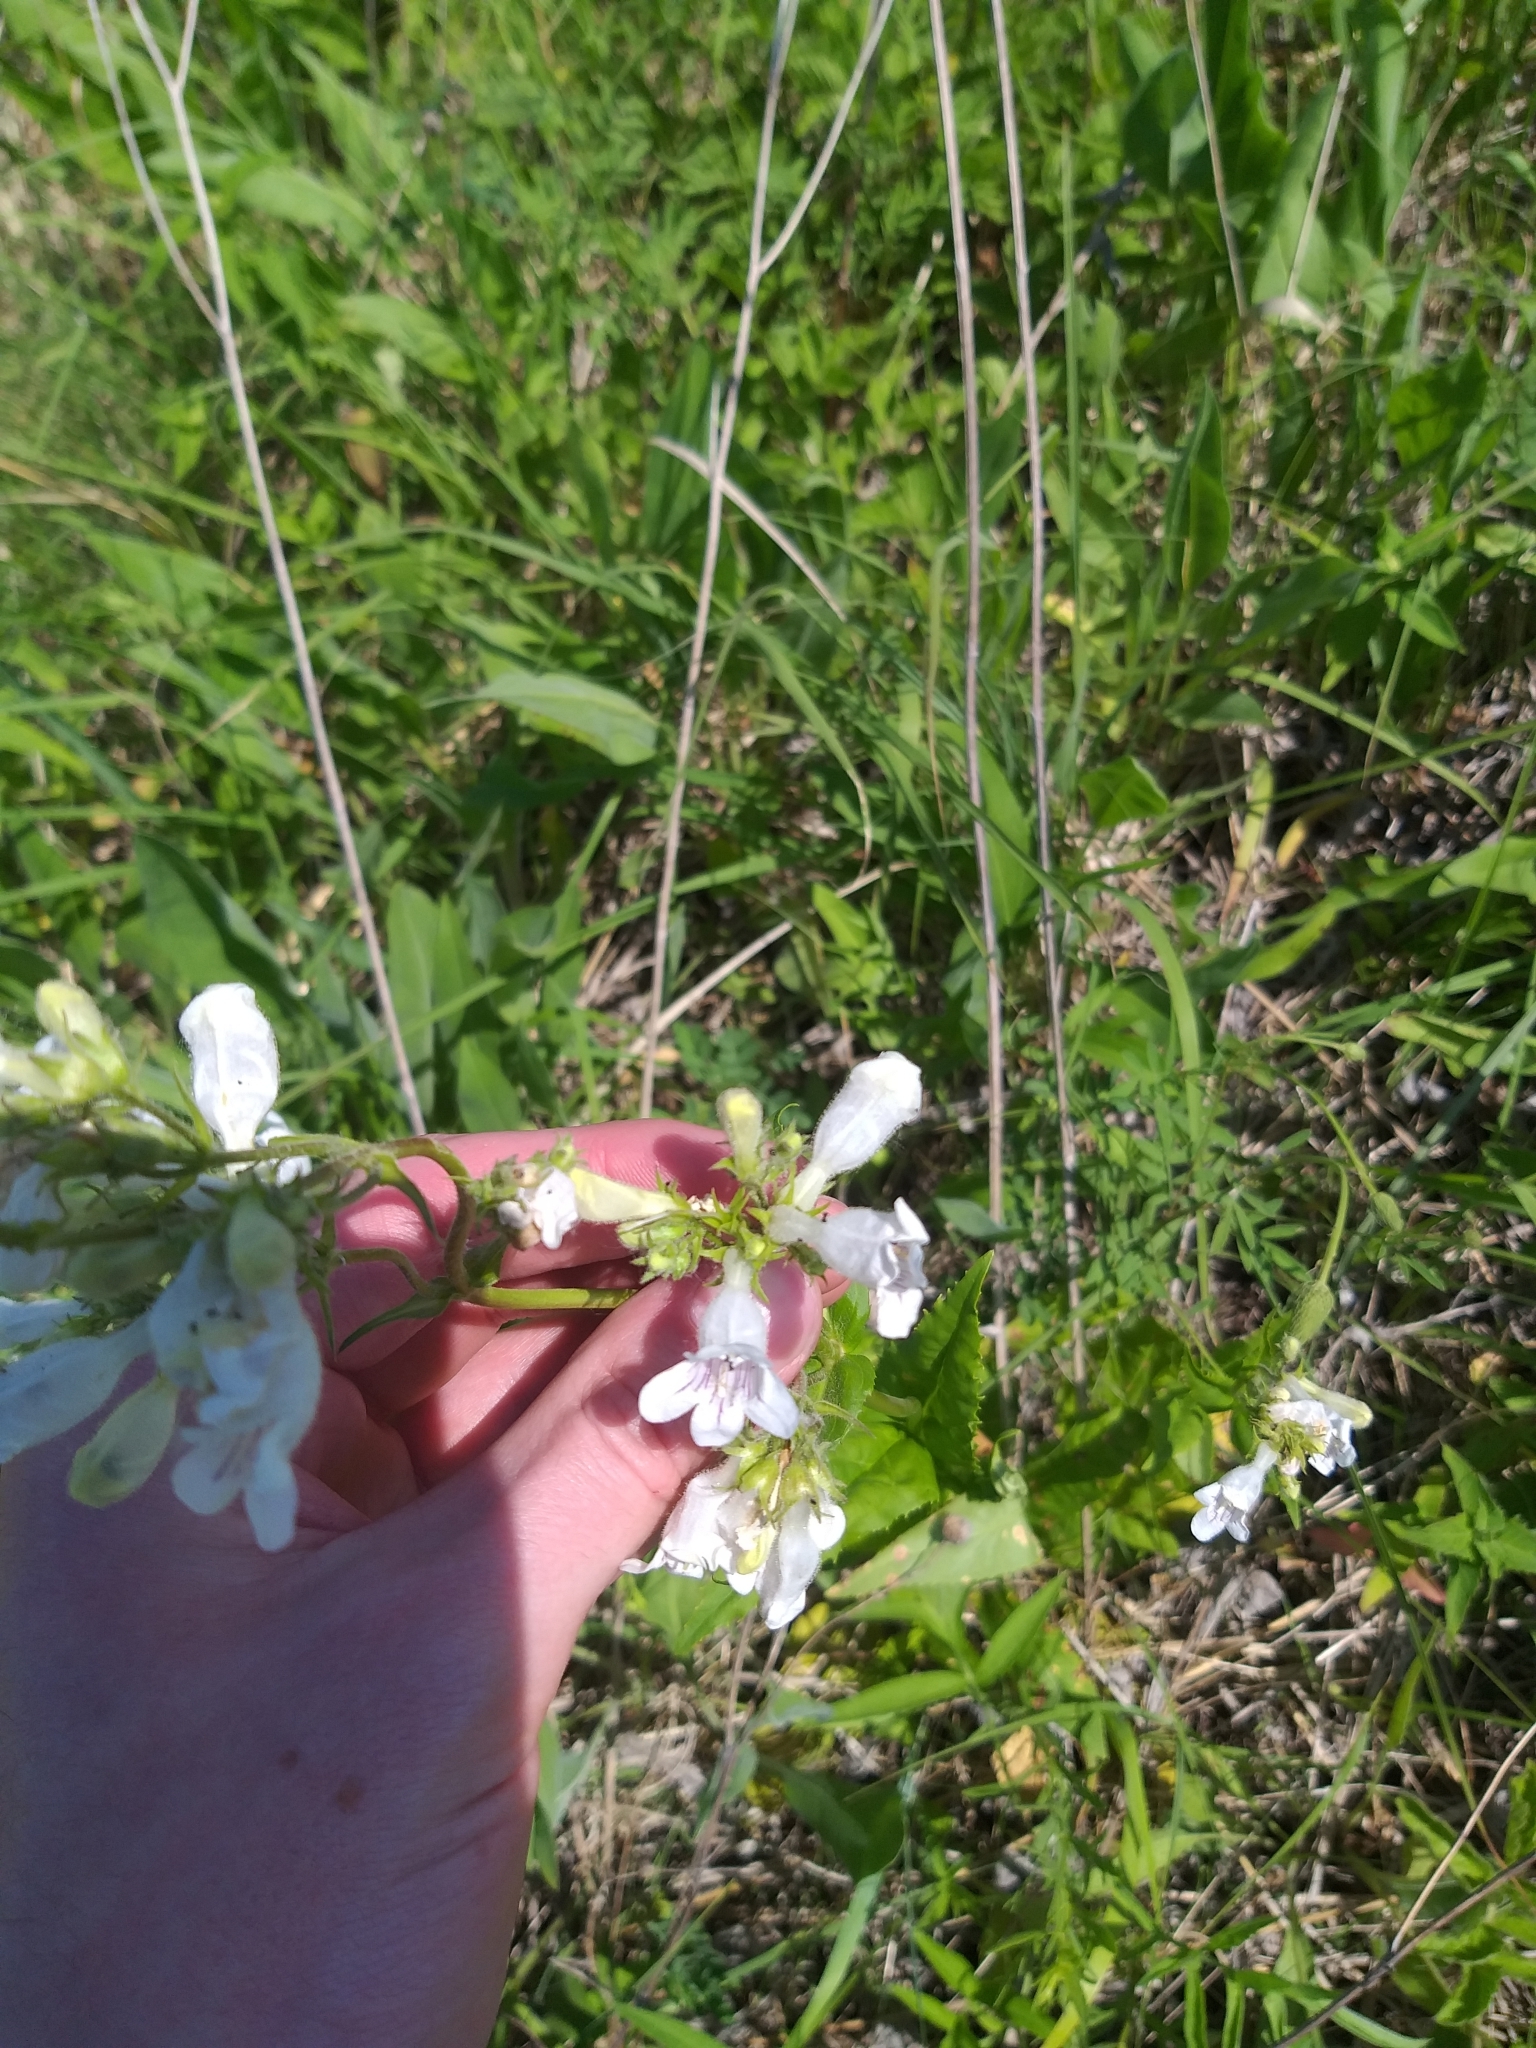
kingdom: Plantae
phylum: Tracheophyta
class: Magnoliopsida
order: Lamiales
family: Plantaginaceae
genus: Penstemon
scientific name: Penstemon digitalis
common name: Foxglove beardtongue
